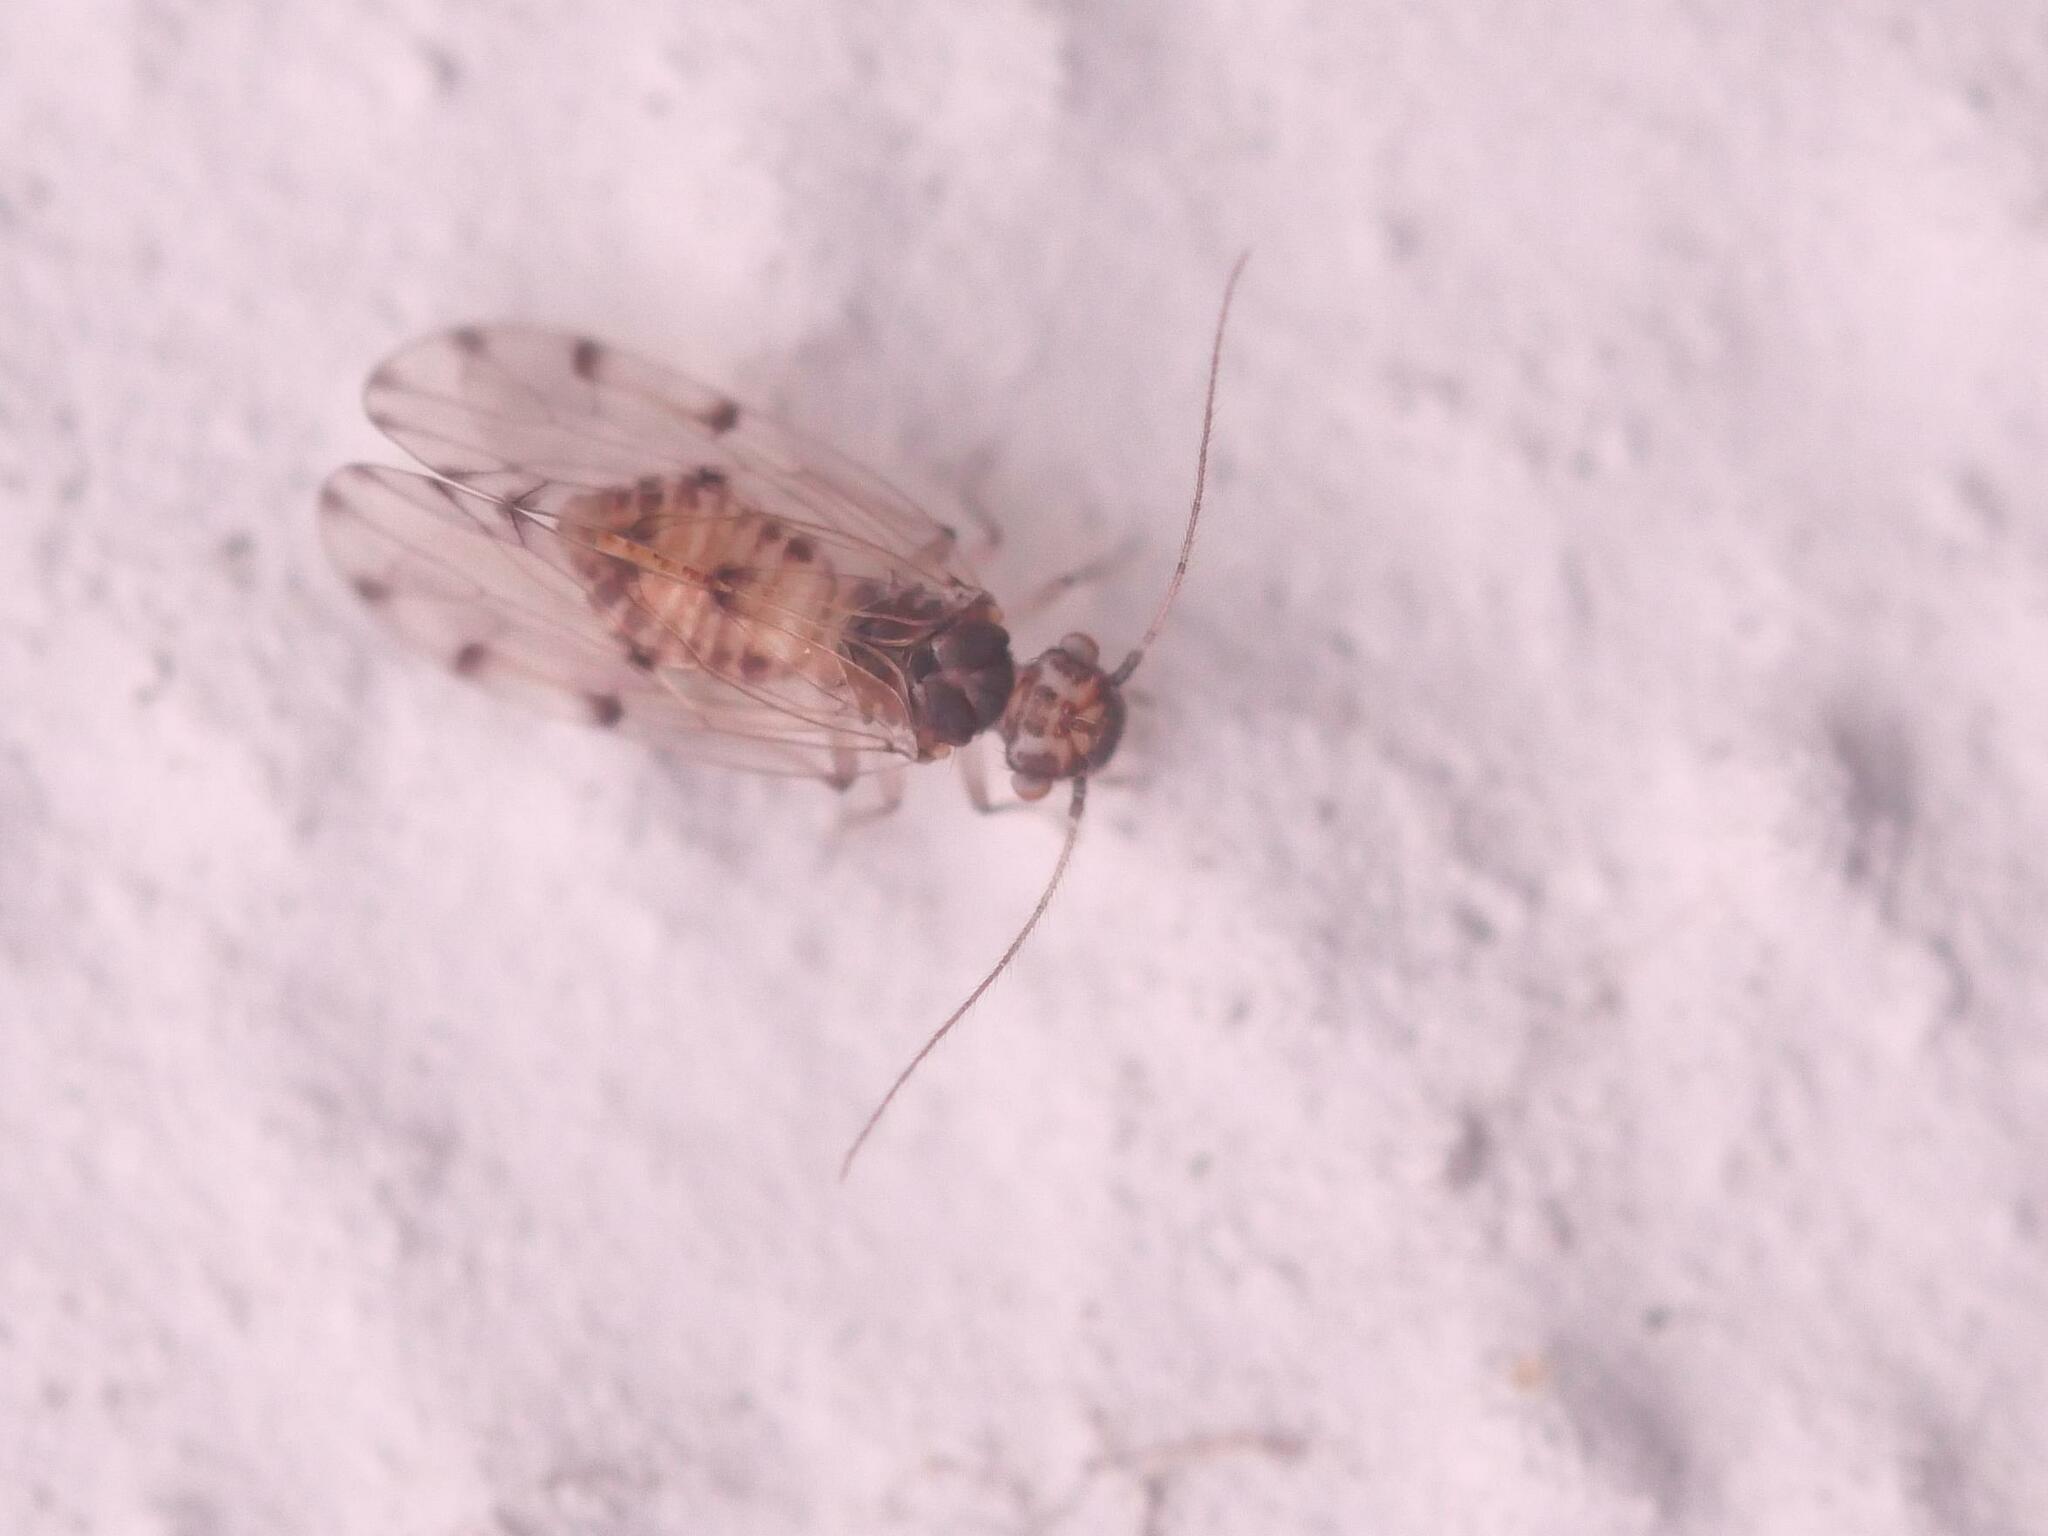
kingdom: Animalia
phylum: Arthropoda
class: Insecta
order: Psocodea
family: Ectopsocidae
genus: Ectopsocus
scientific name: Ectopsocus petersi
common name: Medium-sized bark louse
